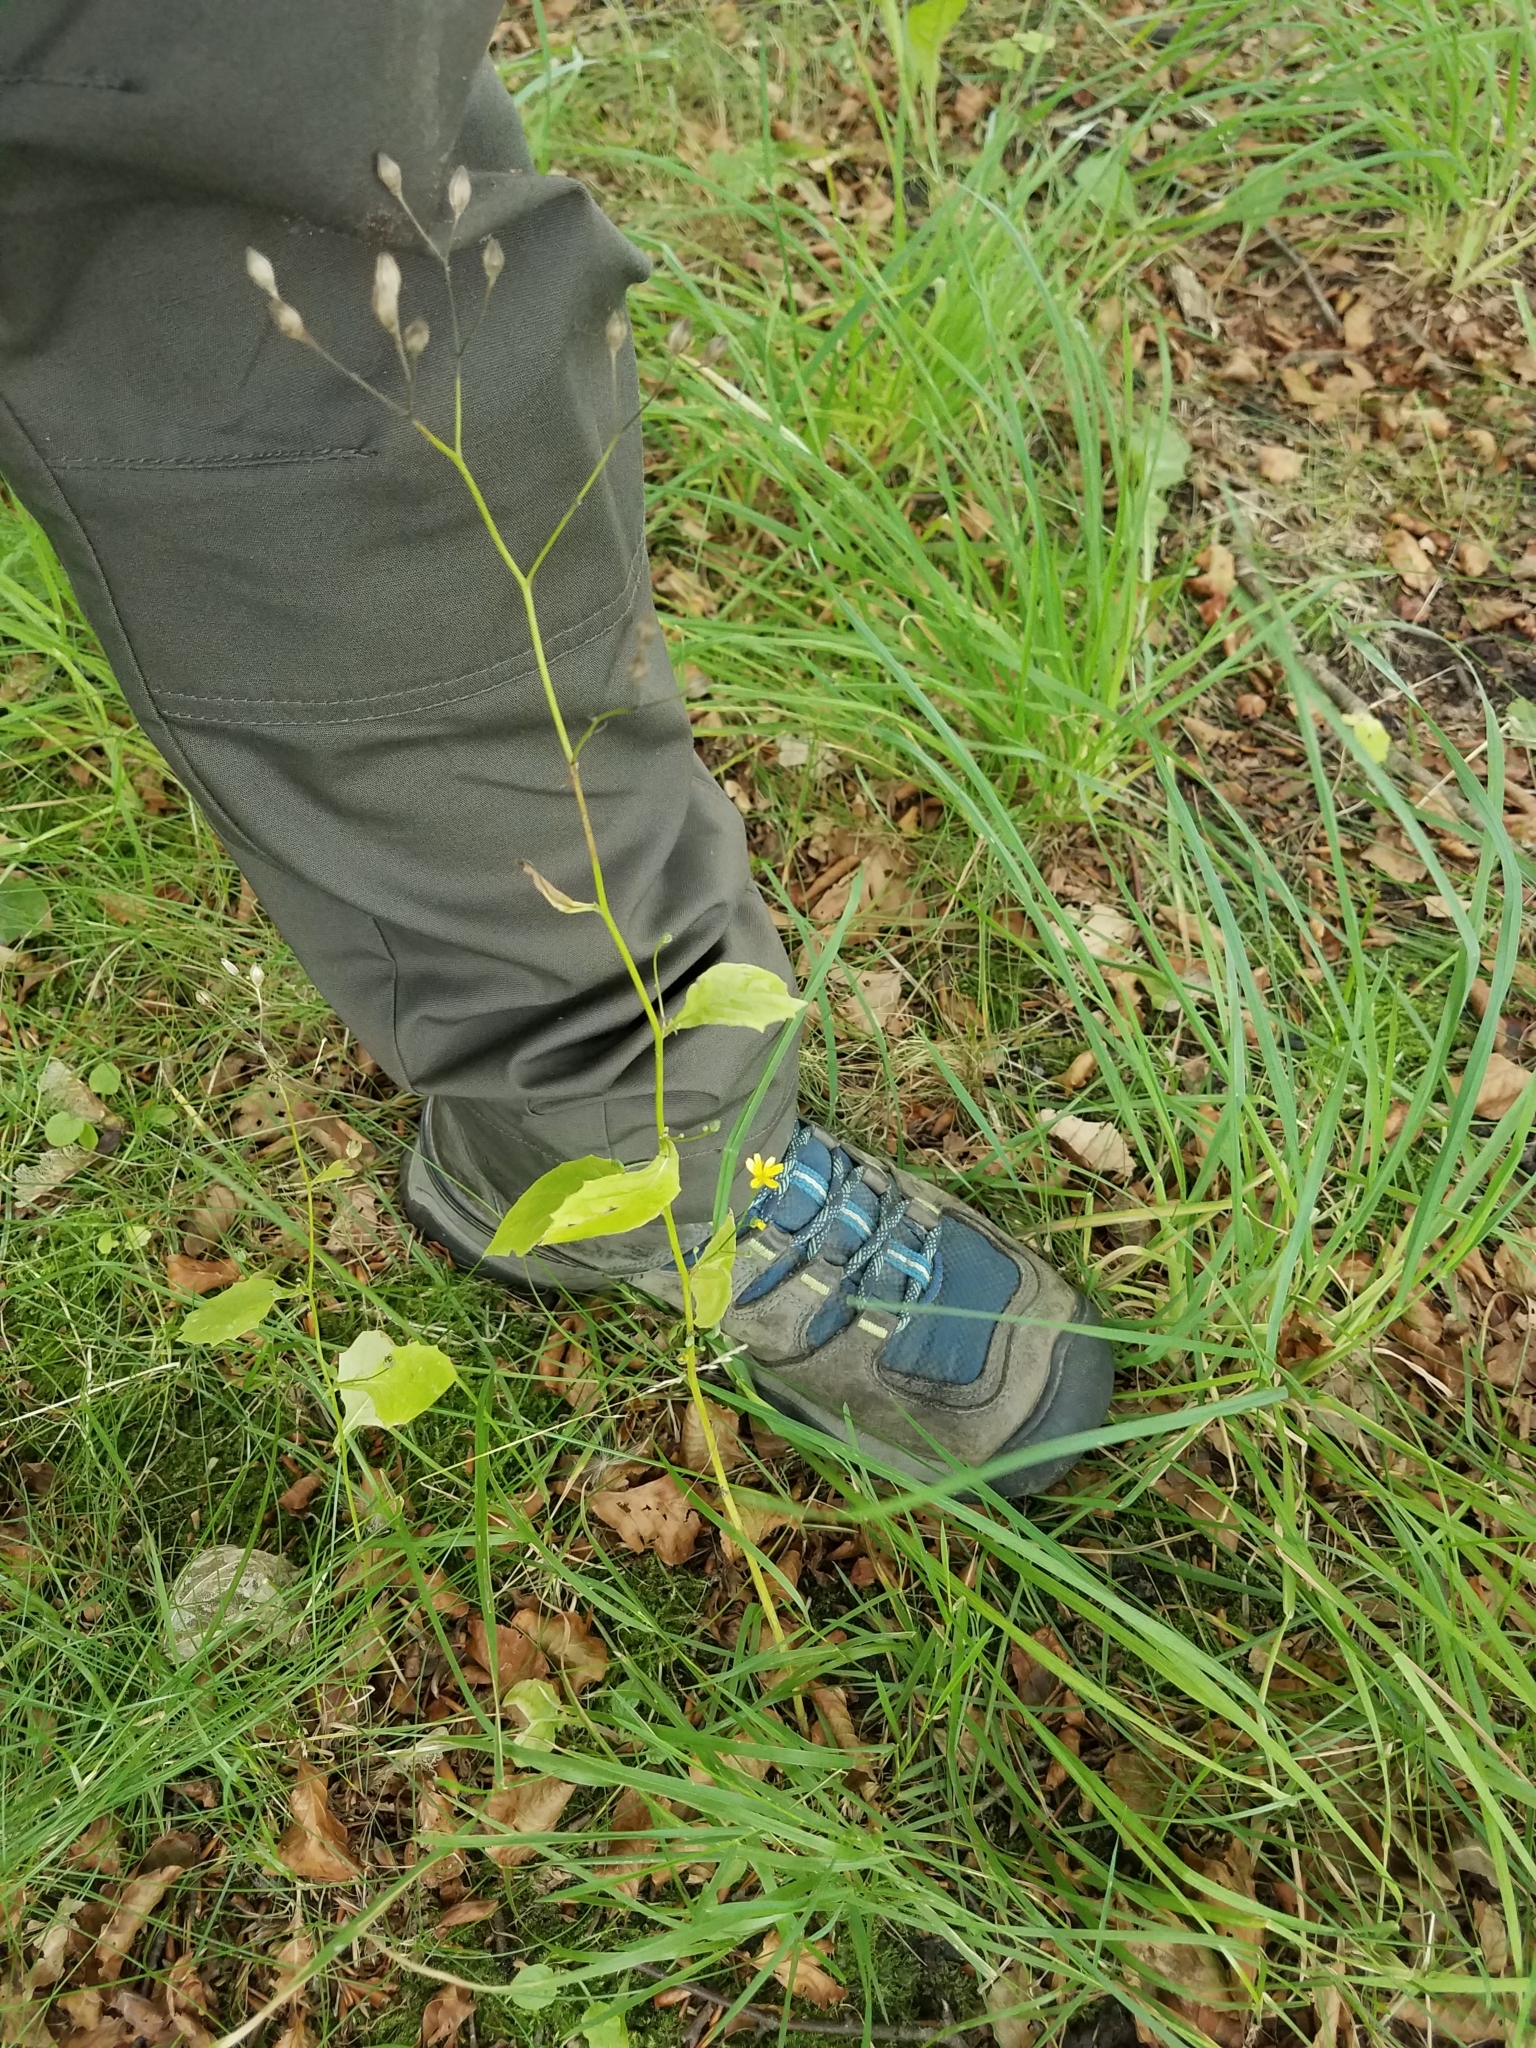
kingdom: Plantae
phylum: Tracheophyta
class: Magnoliopsida
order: Asterales
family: Asteraceae
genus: Lapsana
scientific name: Lapsana communis
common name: Nipplewort
